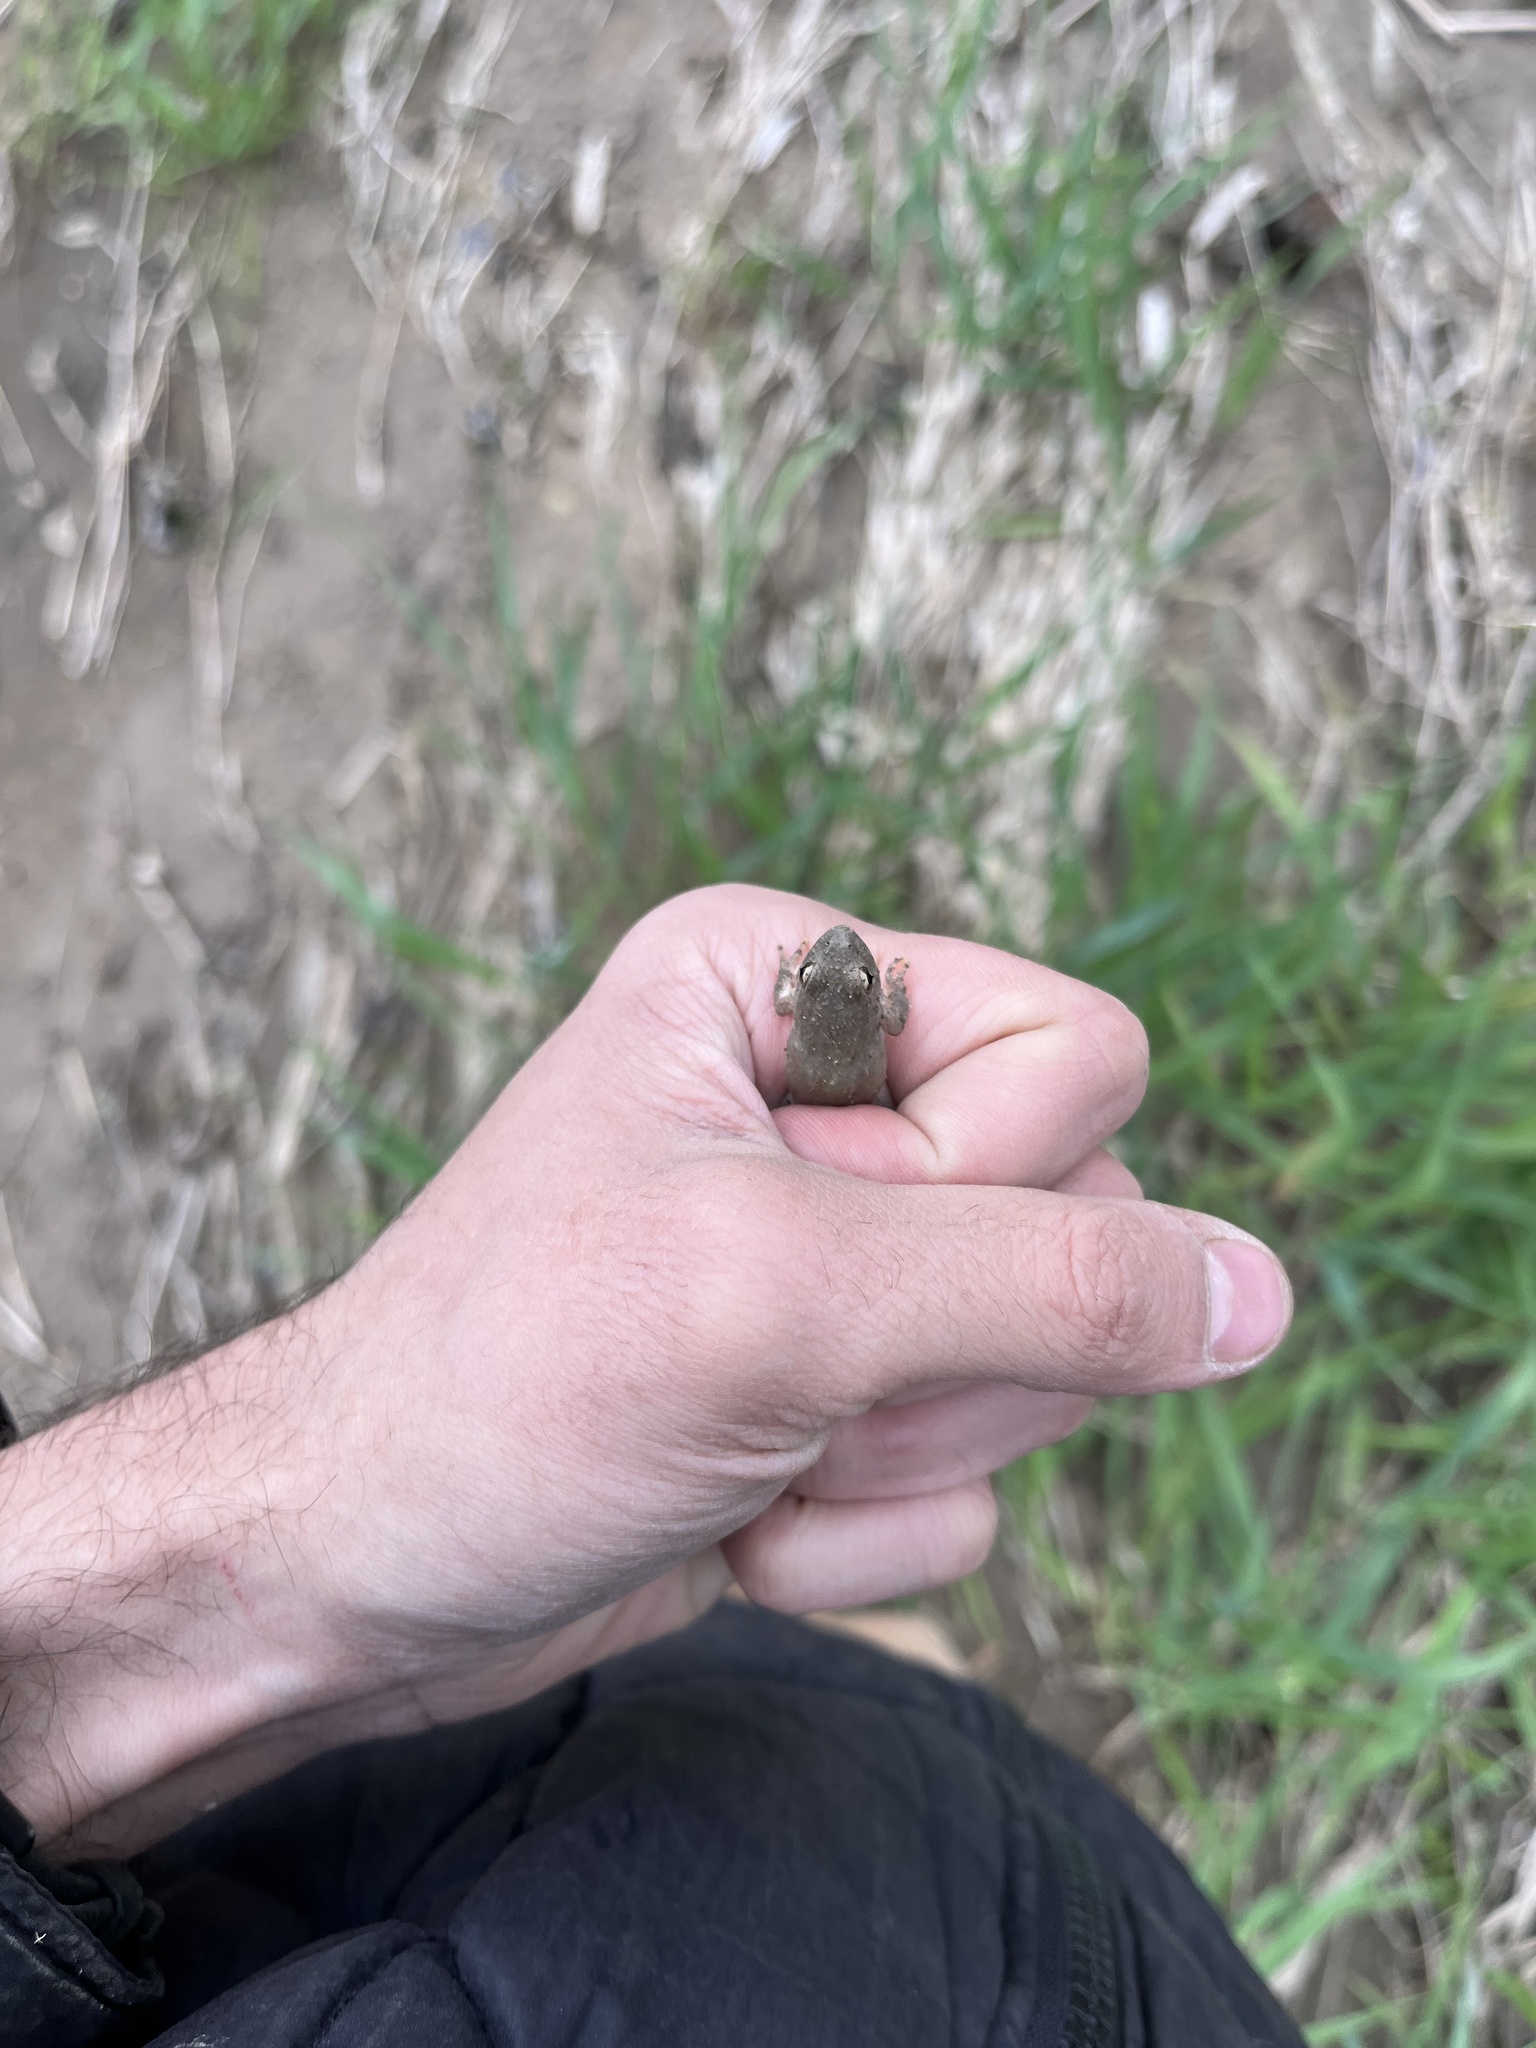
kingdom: Animalia
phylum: Chordata
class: Amphibia
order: Anura
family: Hylidae
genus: Acris
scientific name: Acris blanchardi
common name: Blanchard's cricket frog
